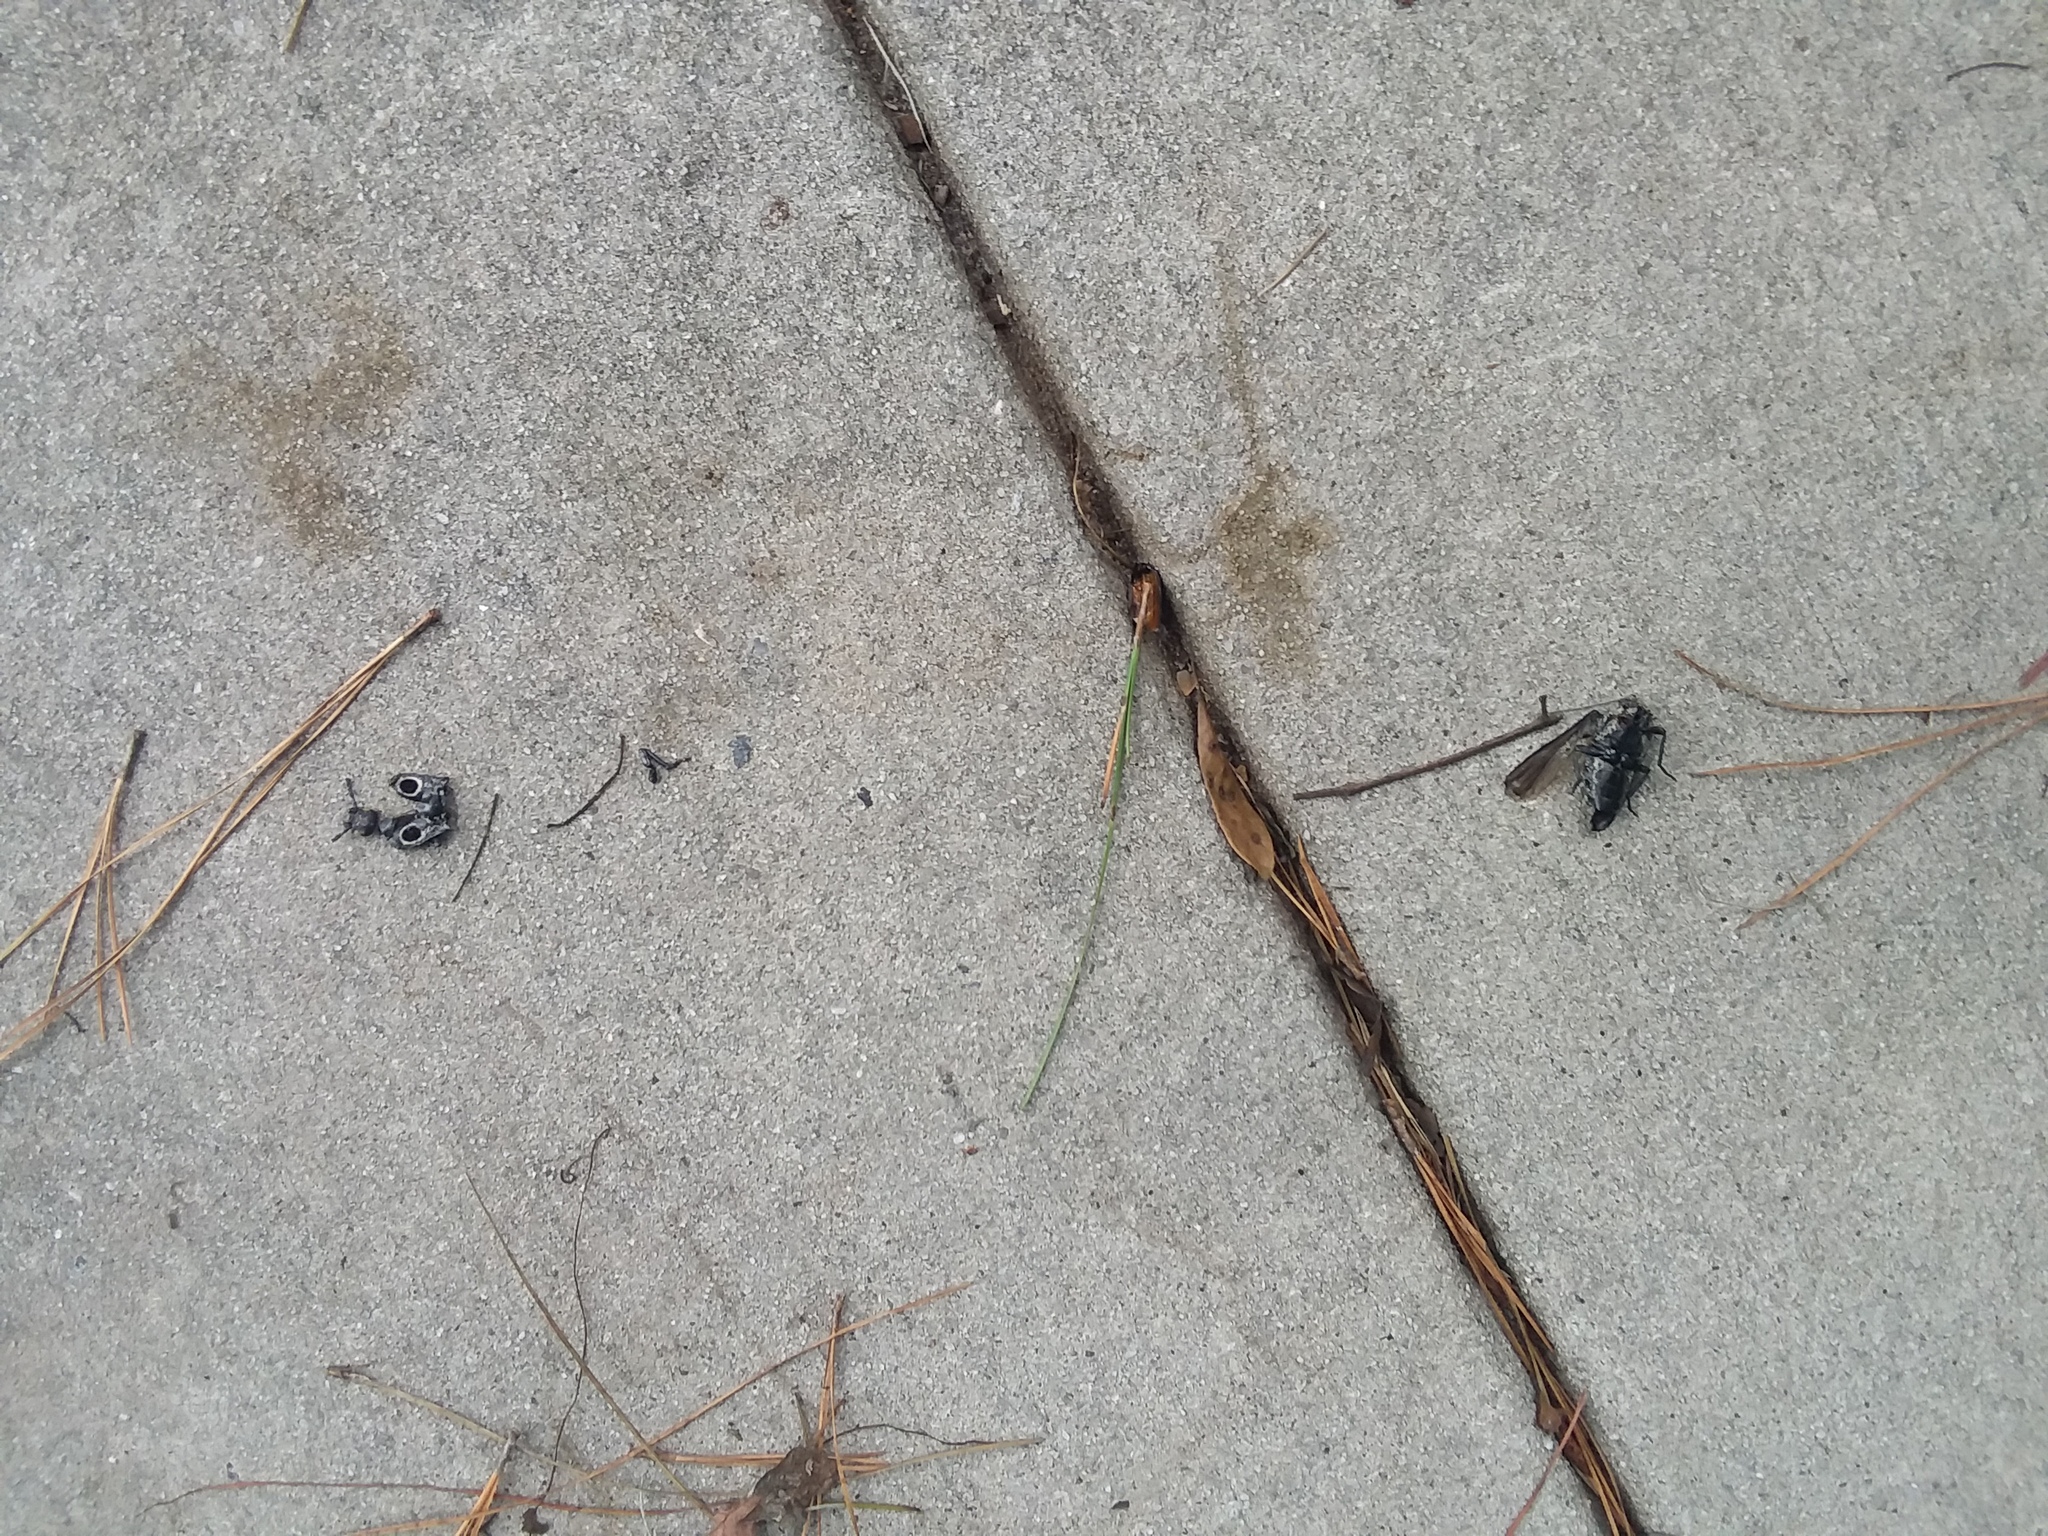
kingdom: Animalia
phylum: Arthropoda
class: Insecta
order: Coleoptera
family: Elateridae
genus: Alaus
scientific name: Alaus oculatus
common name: Eastern eyed click beetle
